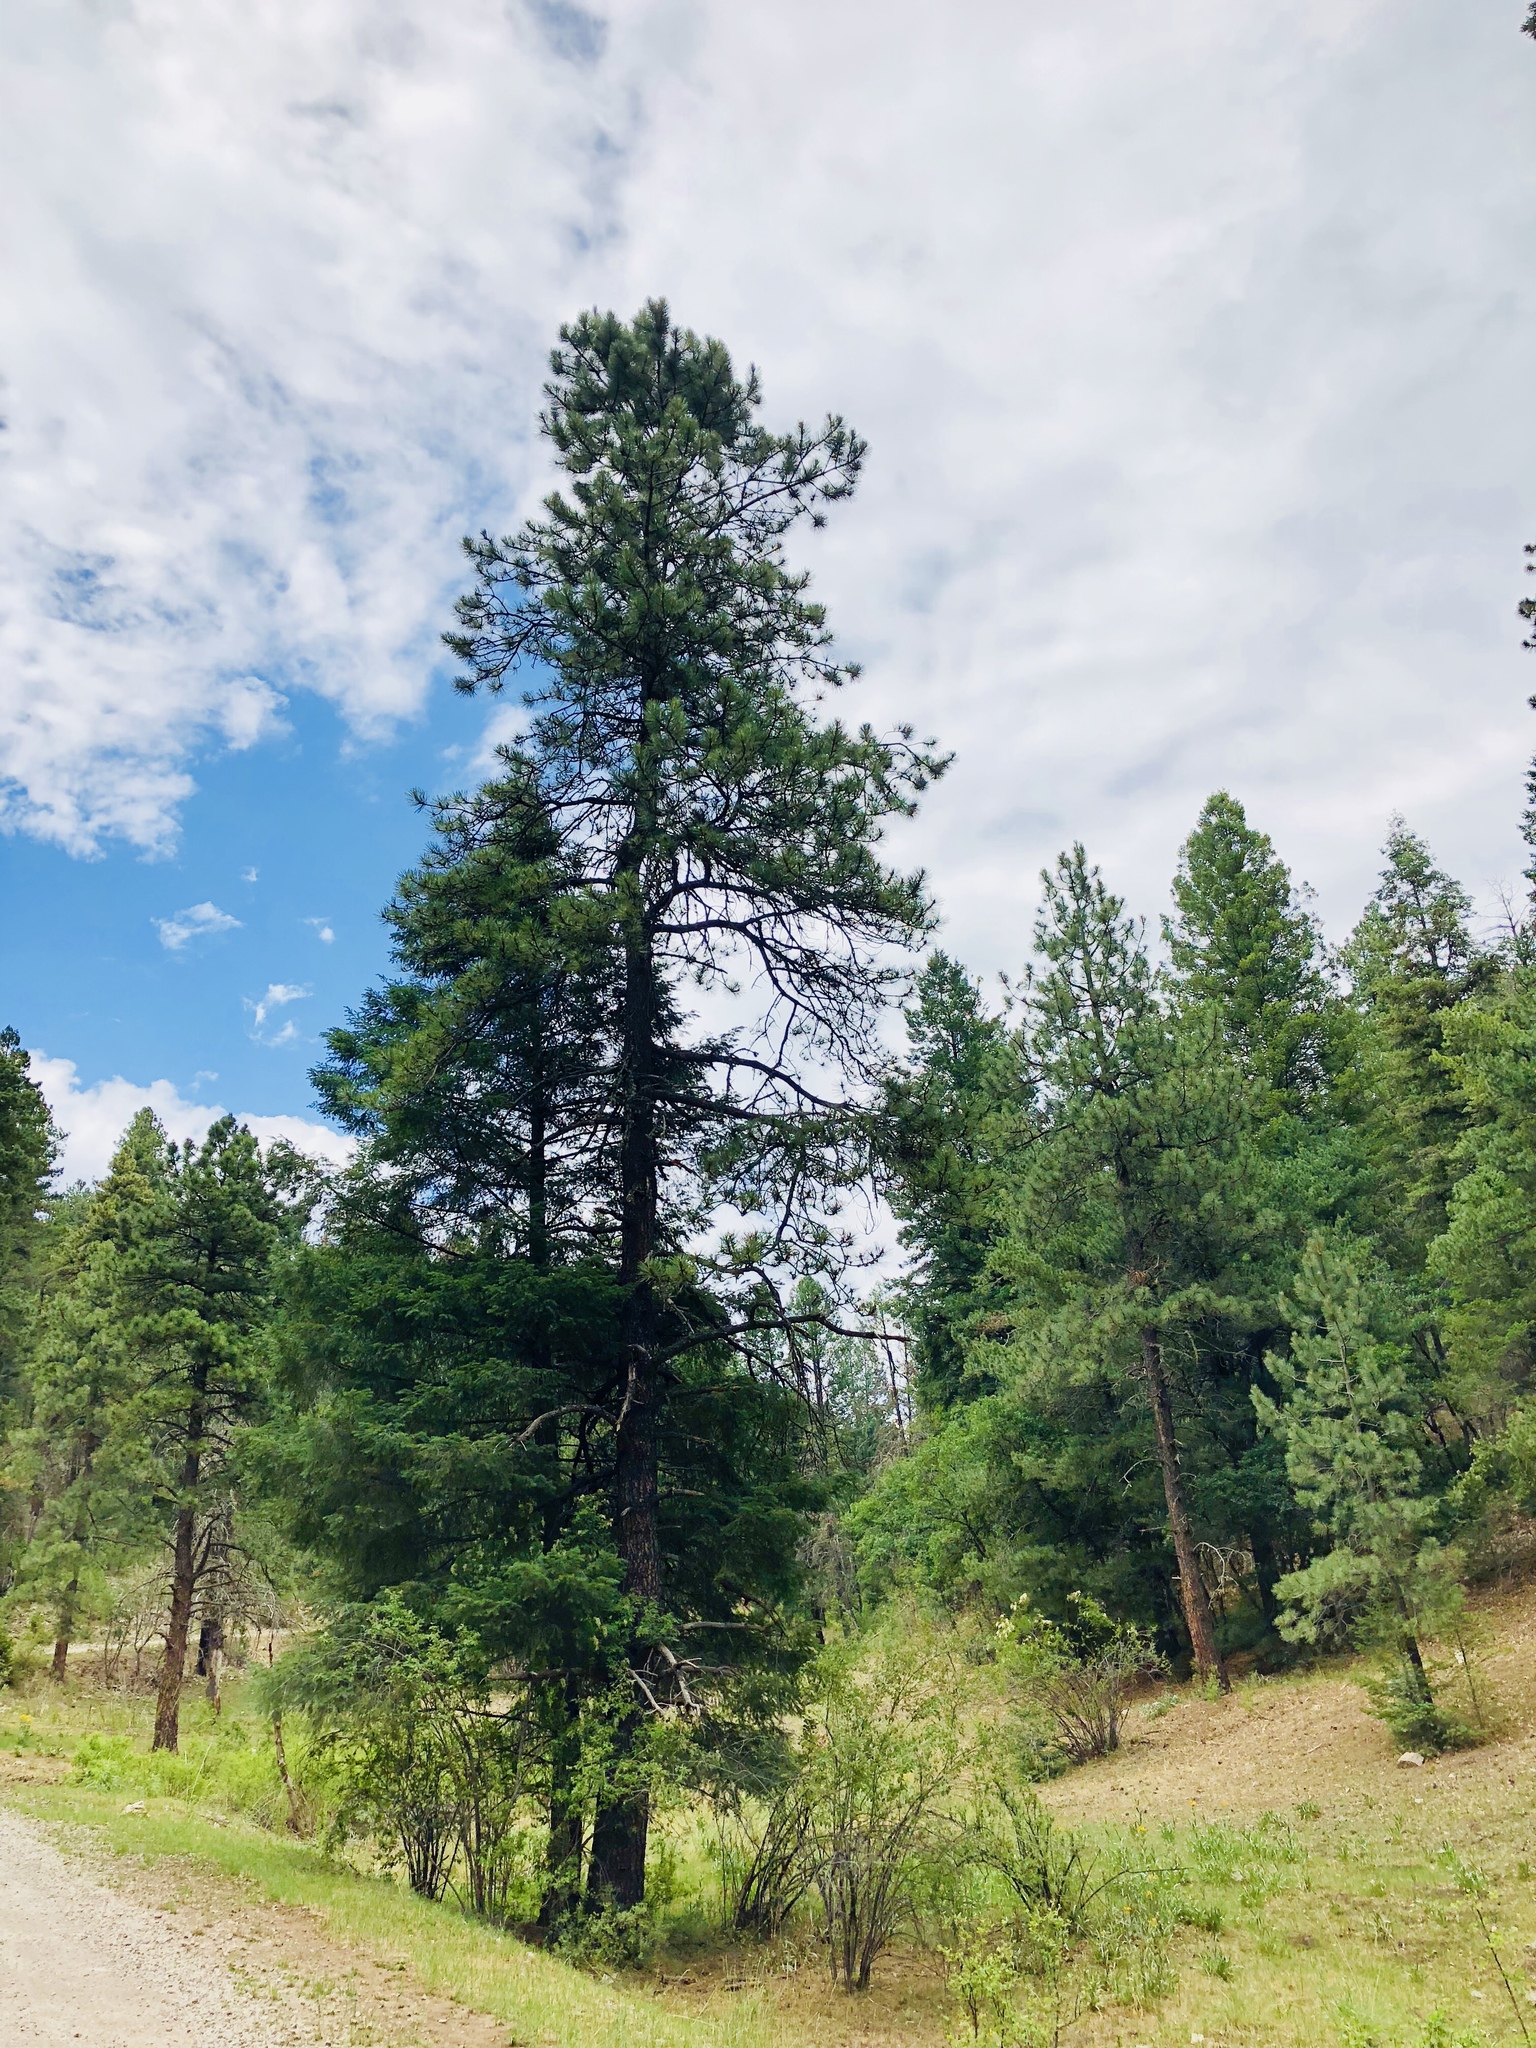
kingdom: Plantae
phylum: Tracheophyta
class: Pinopsida
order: Pinales
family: Pinaceae
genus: Pinus
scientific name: Pinus ponderosa
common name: Western yellow-pine
